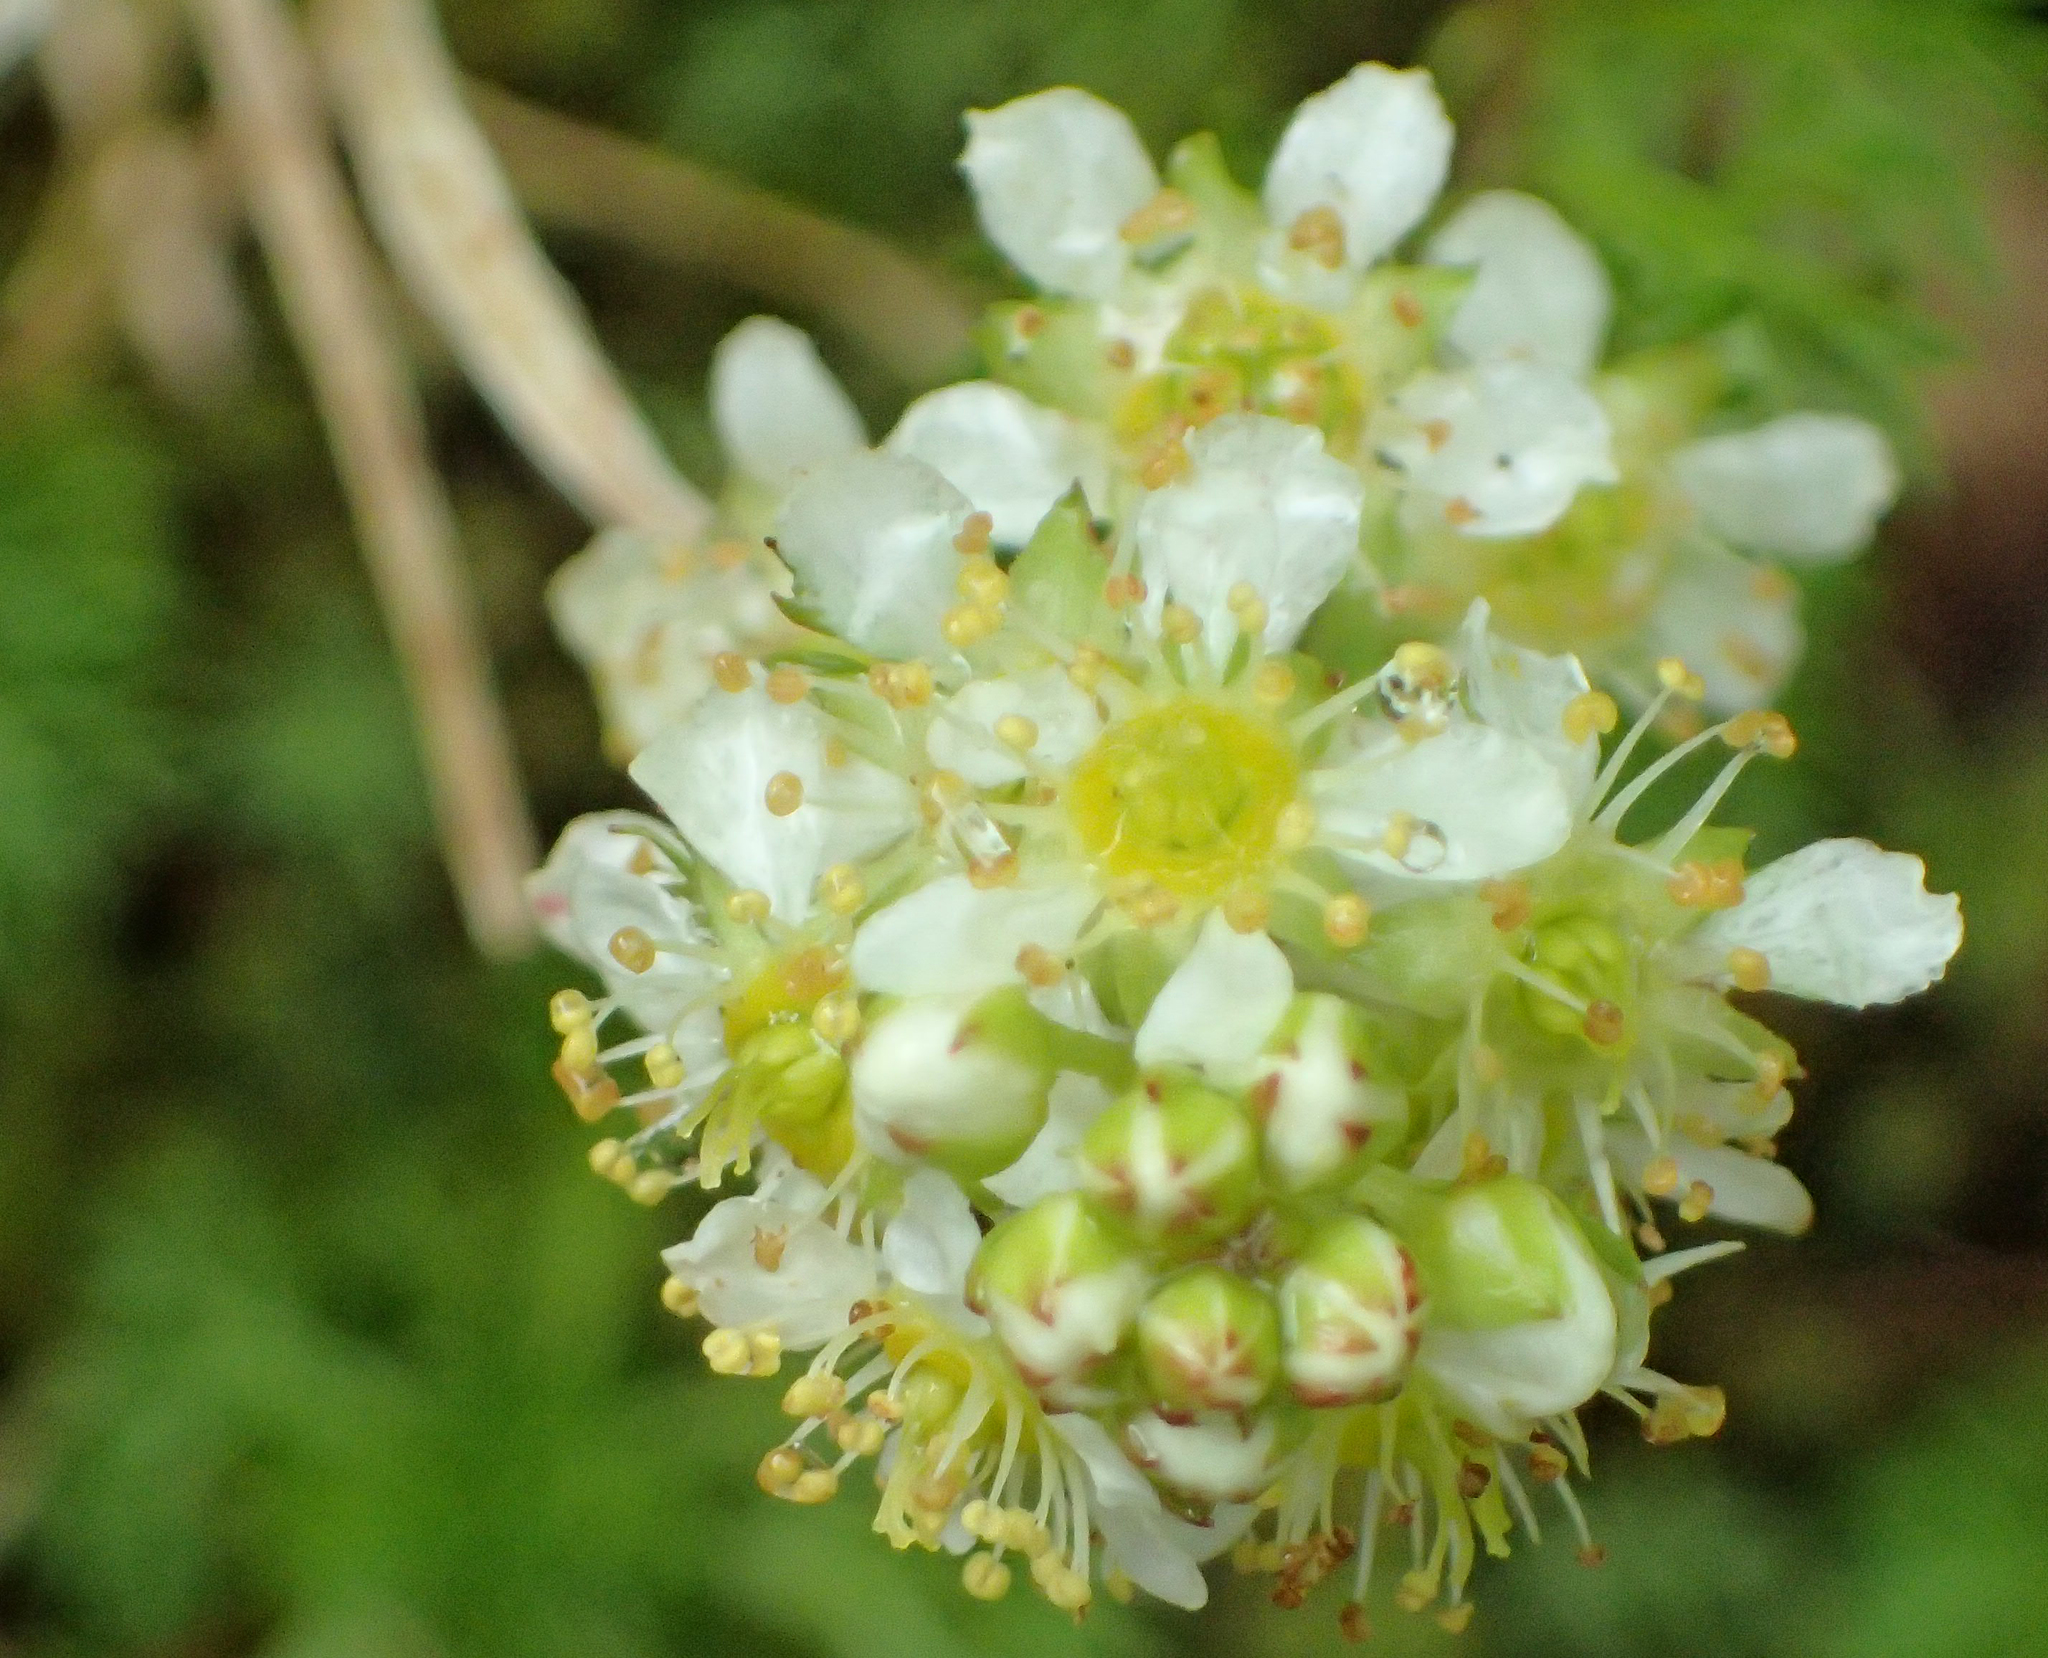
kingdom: Plantae
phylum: Tracheophyta
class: Magnoliopsida
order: Rosales
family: Rosaceae
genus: Luetkea
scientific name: Luetkea pectinata
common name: Partridgefoot
